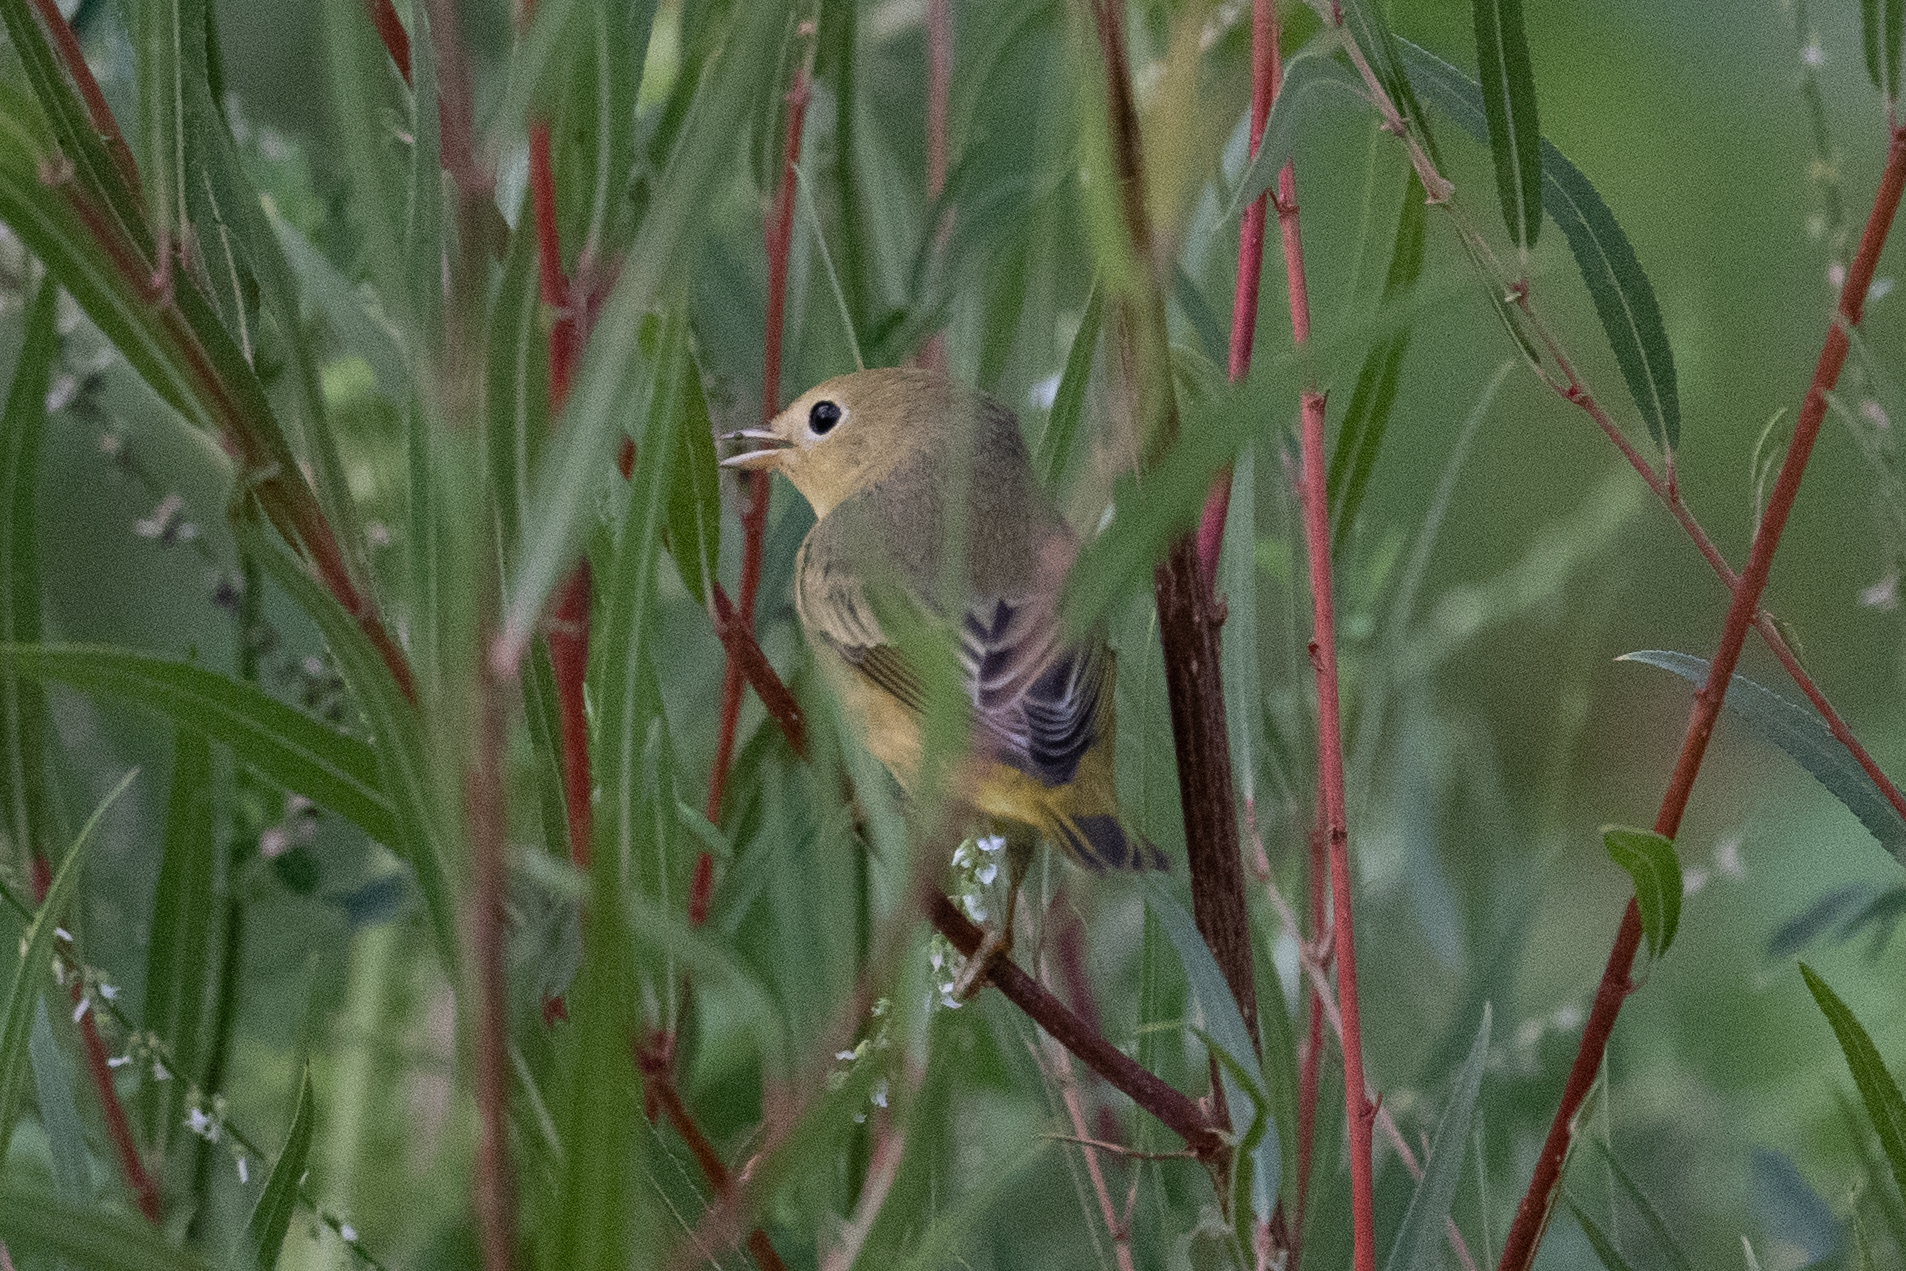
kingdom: Animalia
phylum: Chordata
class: Aves
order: Passeriformes
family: Parulidae
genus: Setophaga
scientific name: Setophaga petechia
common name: Yellow warbler
